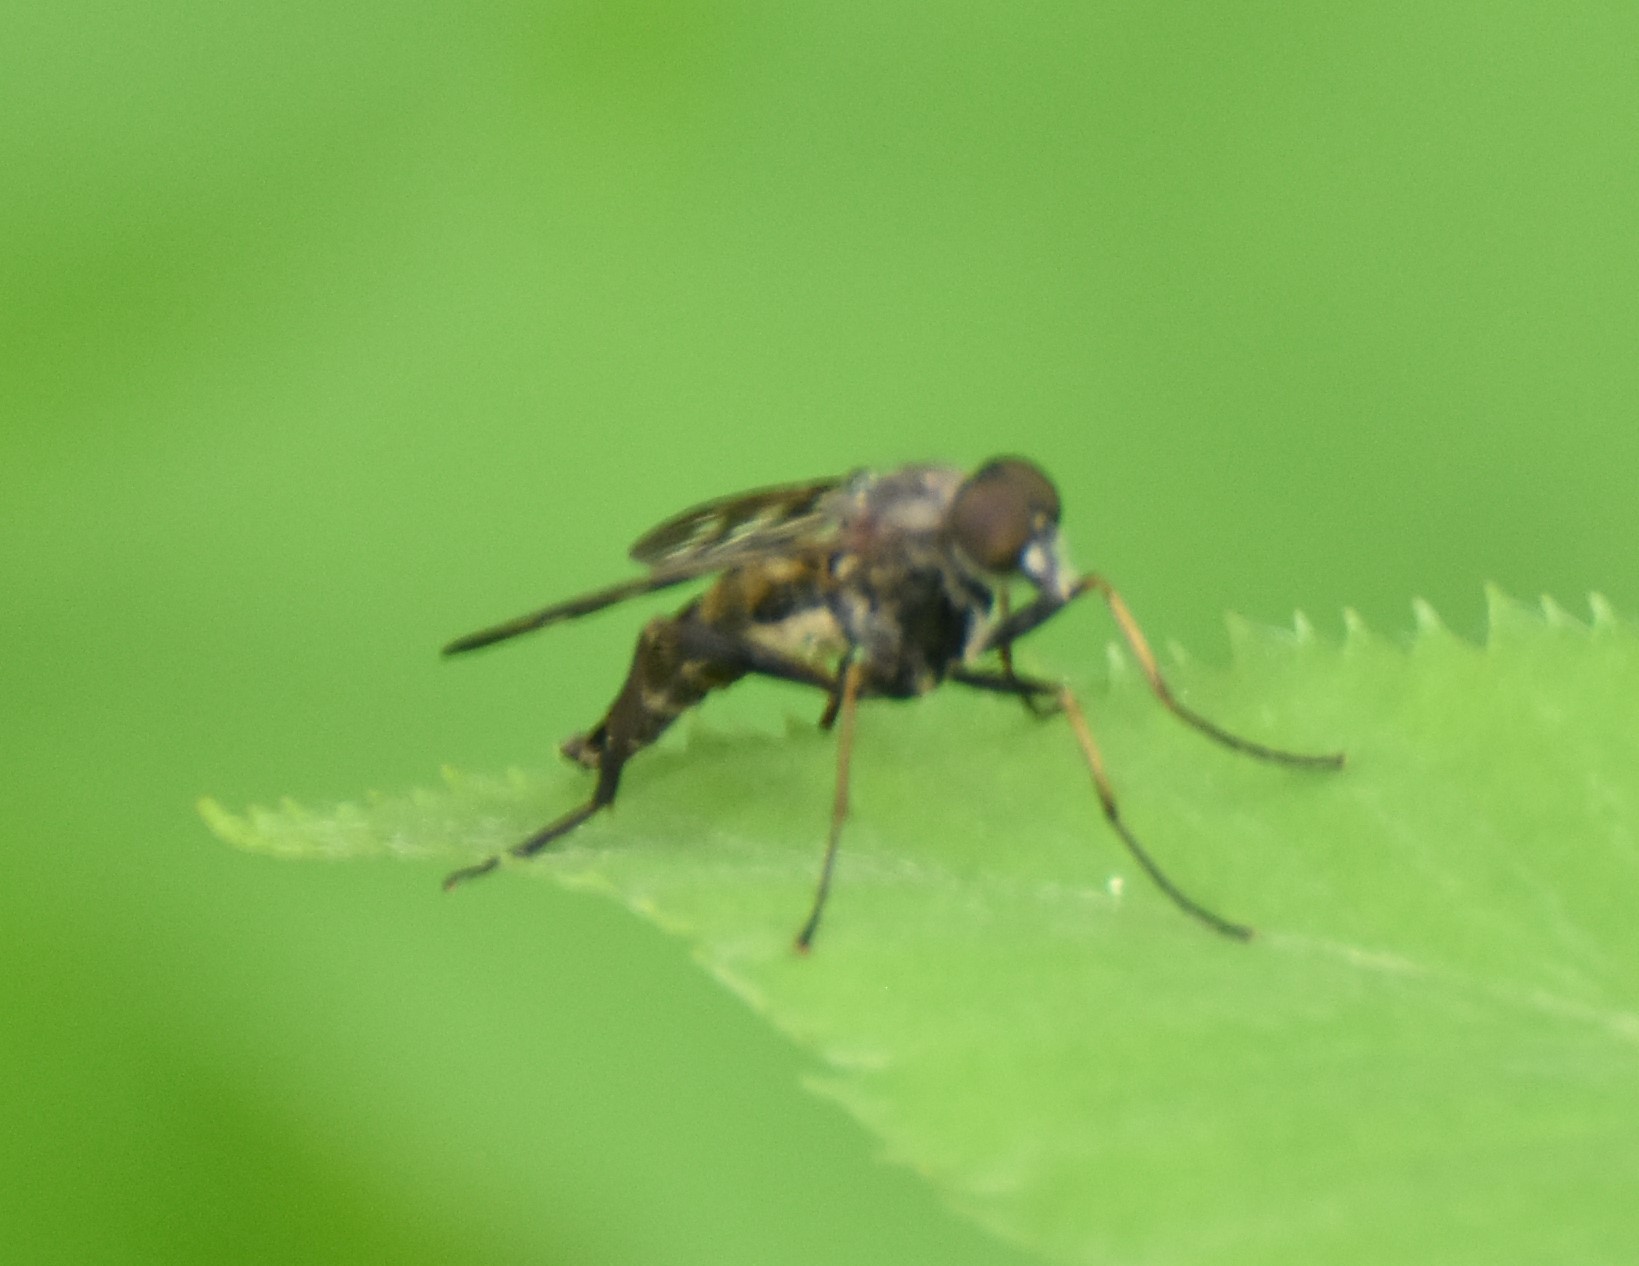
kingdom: Animalia
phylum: Arthropoda
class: Insecta
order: Diptera
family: Rhagionidae
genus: Rhagio
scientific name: Rhagio mystaceus
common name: Common snipe fly
